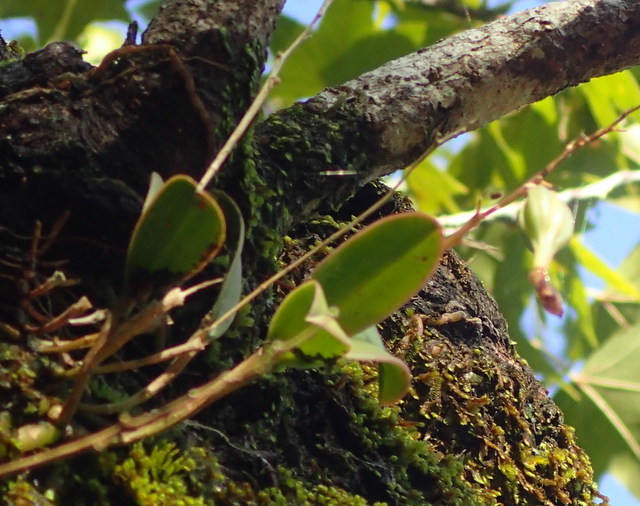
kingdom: Plantae
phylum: Tracheophyta
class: Liliopsida
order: Asparagales
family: Orchidaceae
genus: Epidendrum
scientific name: Epidendrum conopseum
